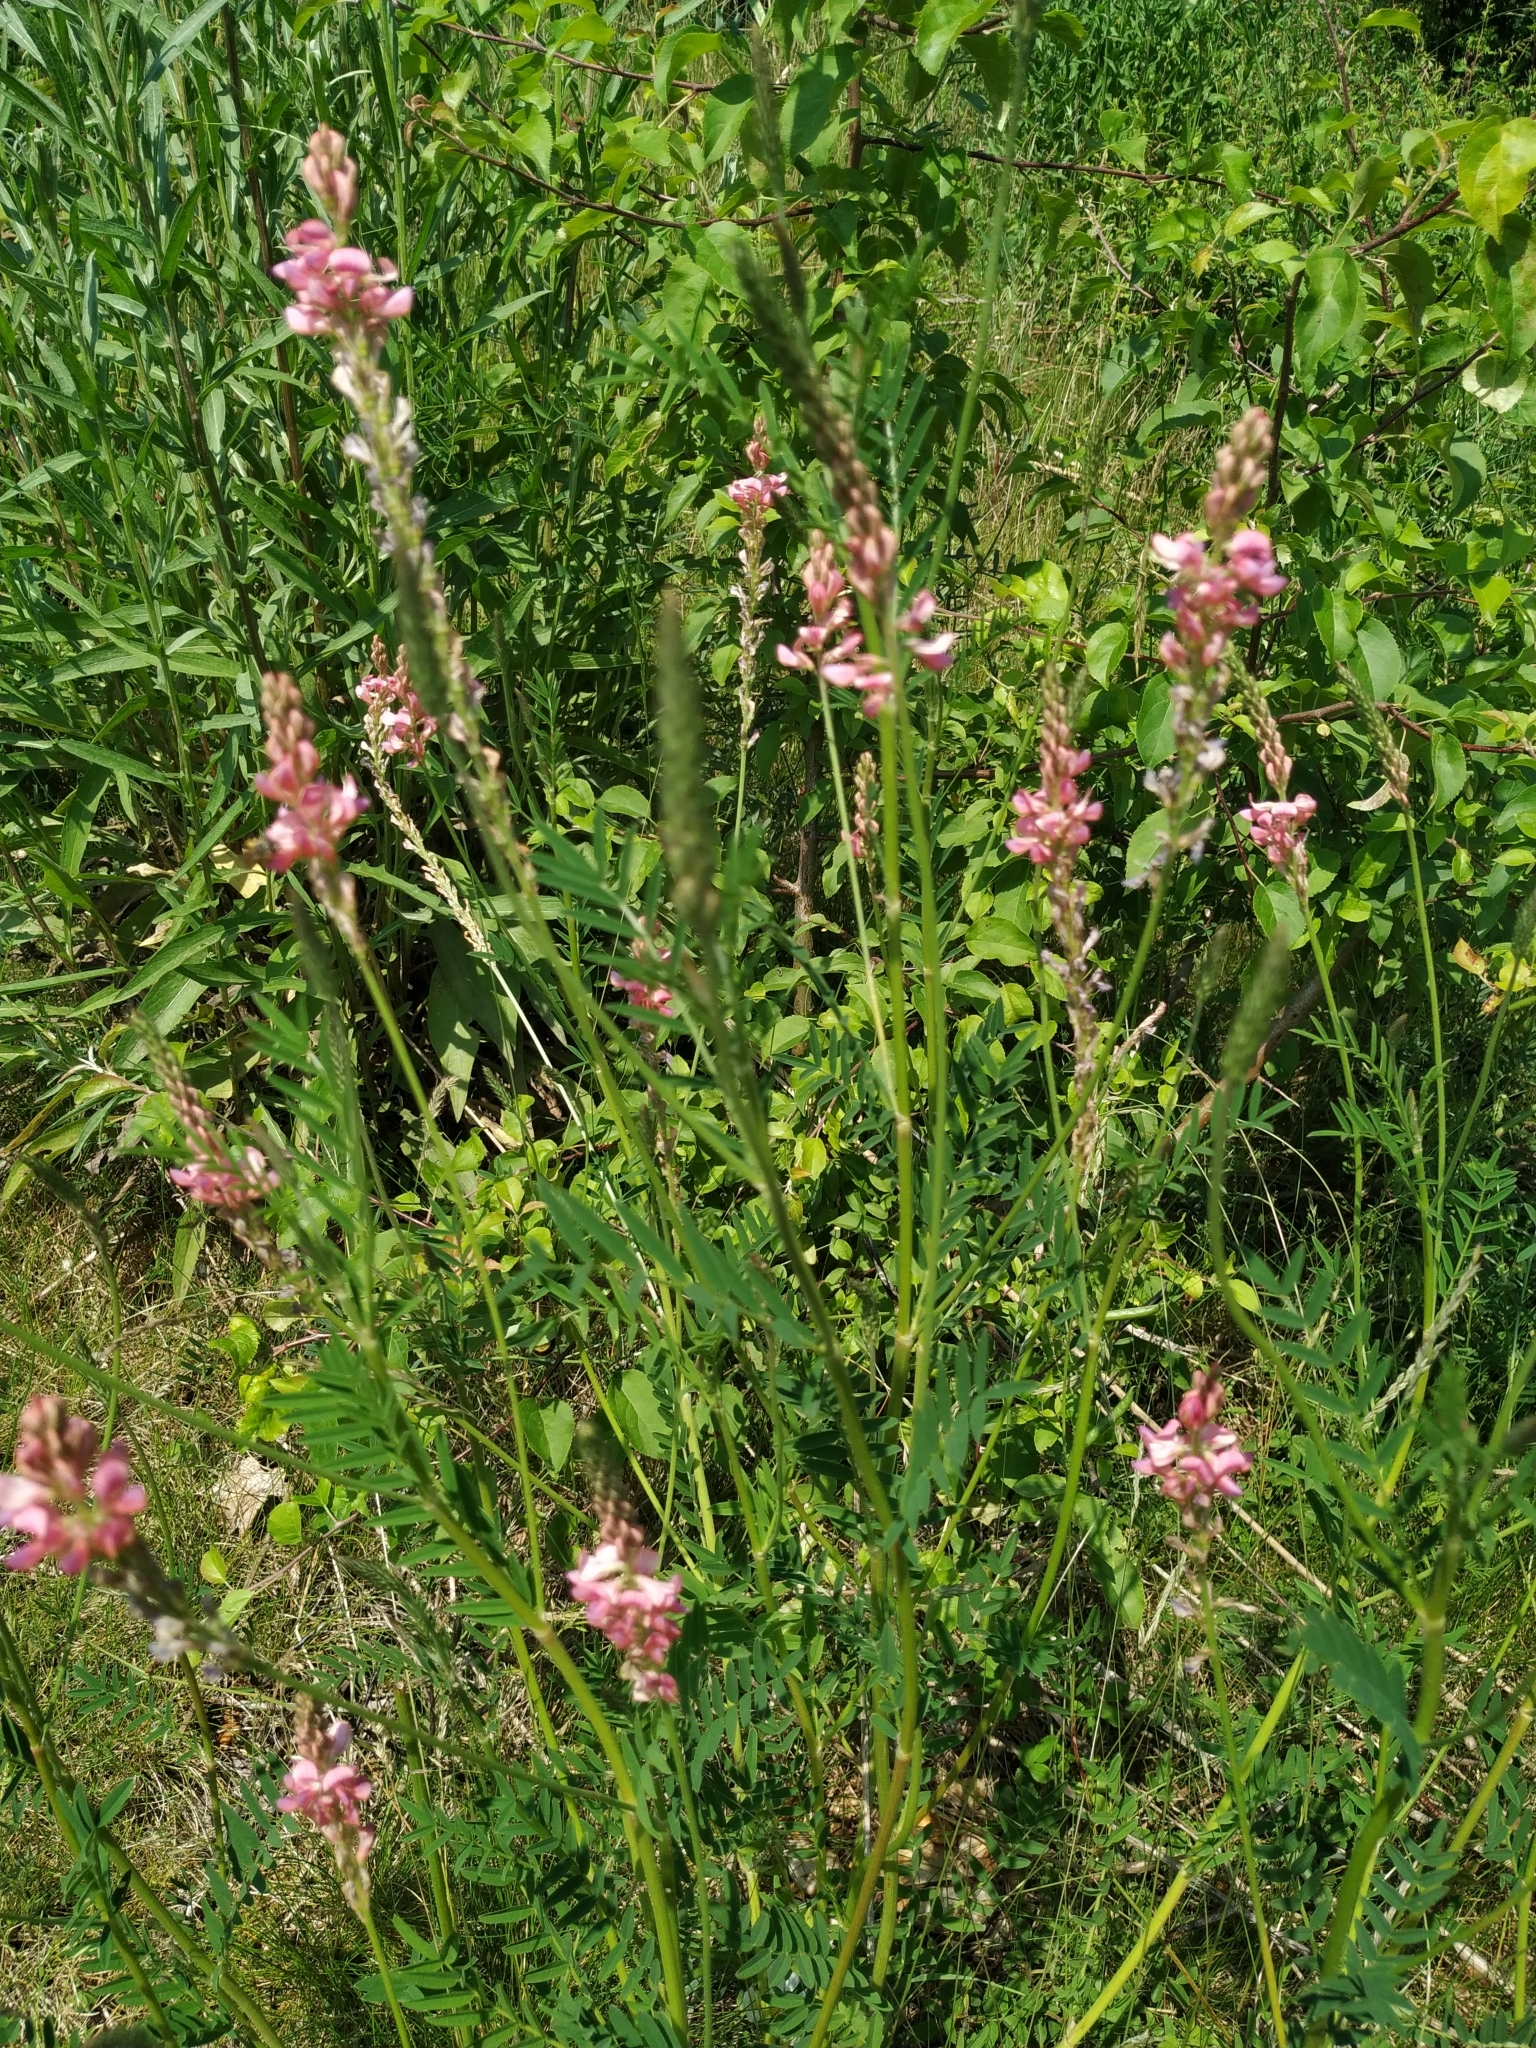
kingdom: Plantae
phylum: Tracheophyta
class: Magnoliopsida
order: Fabales
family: Fabaceae
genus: Onobrychis
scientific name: Onobrychis viciifolia
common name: Sainfoin
